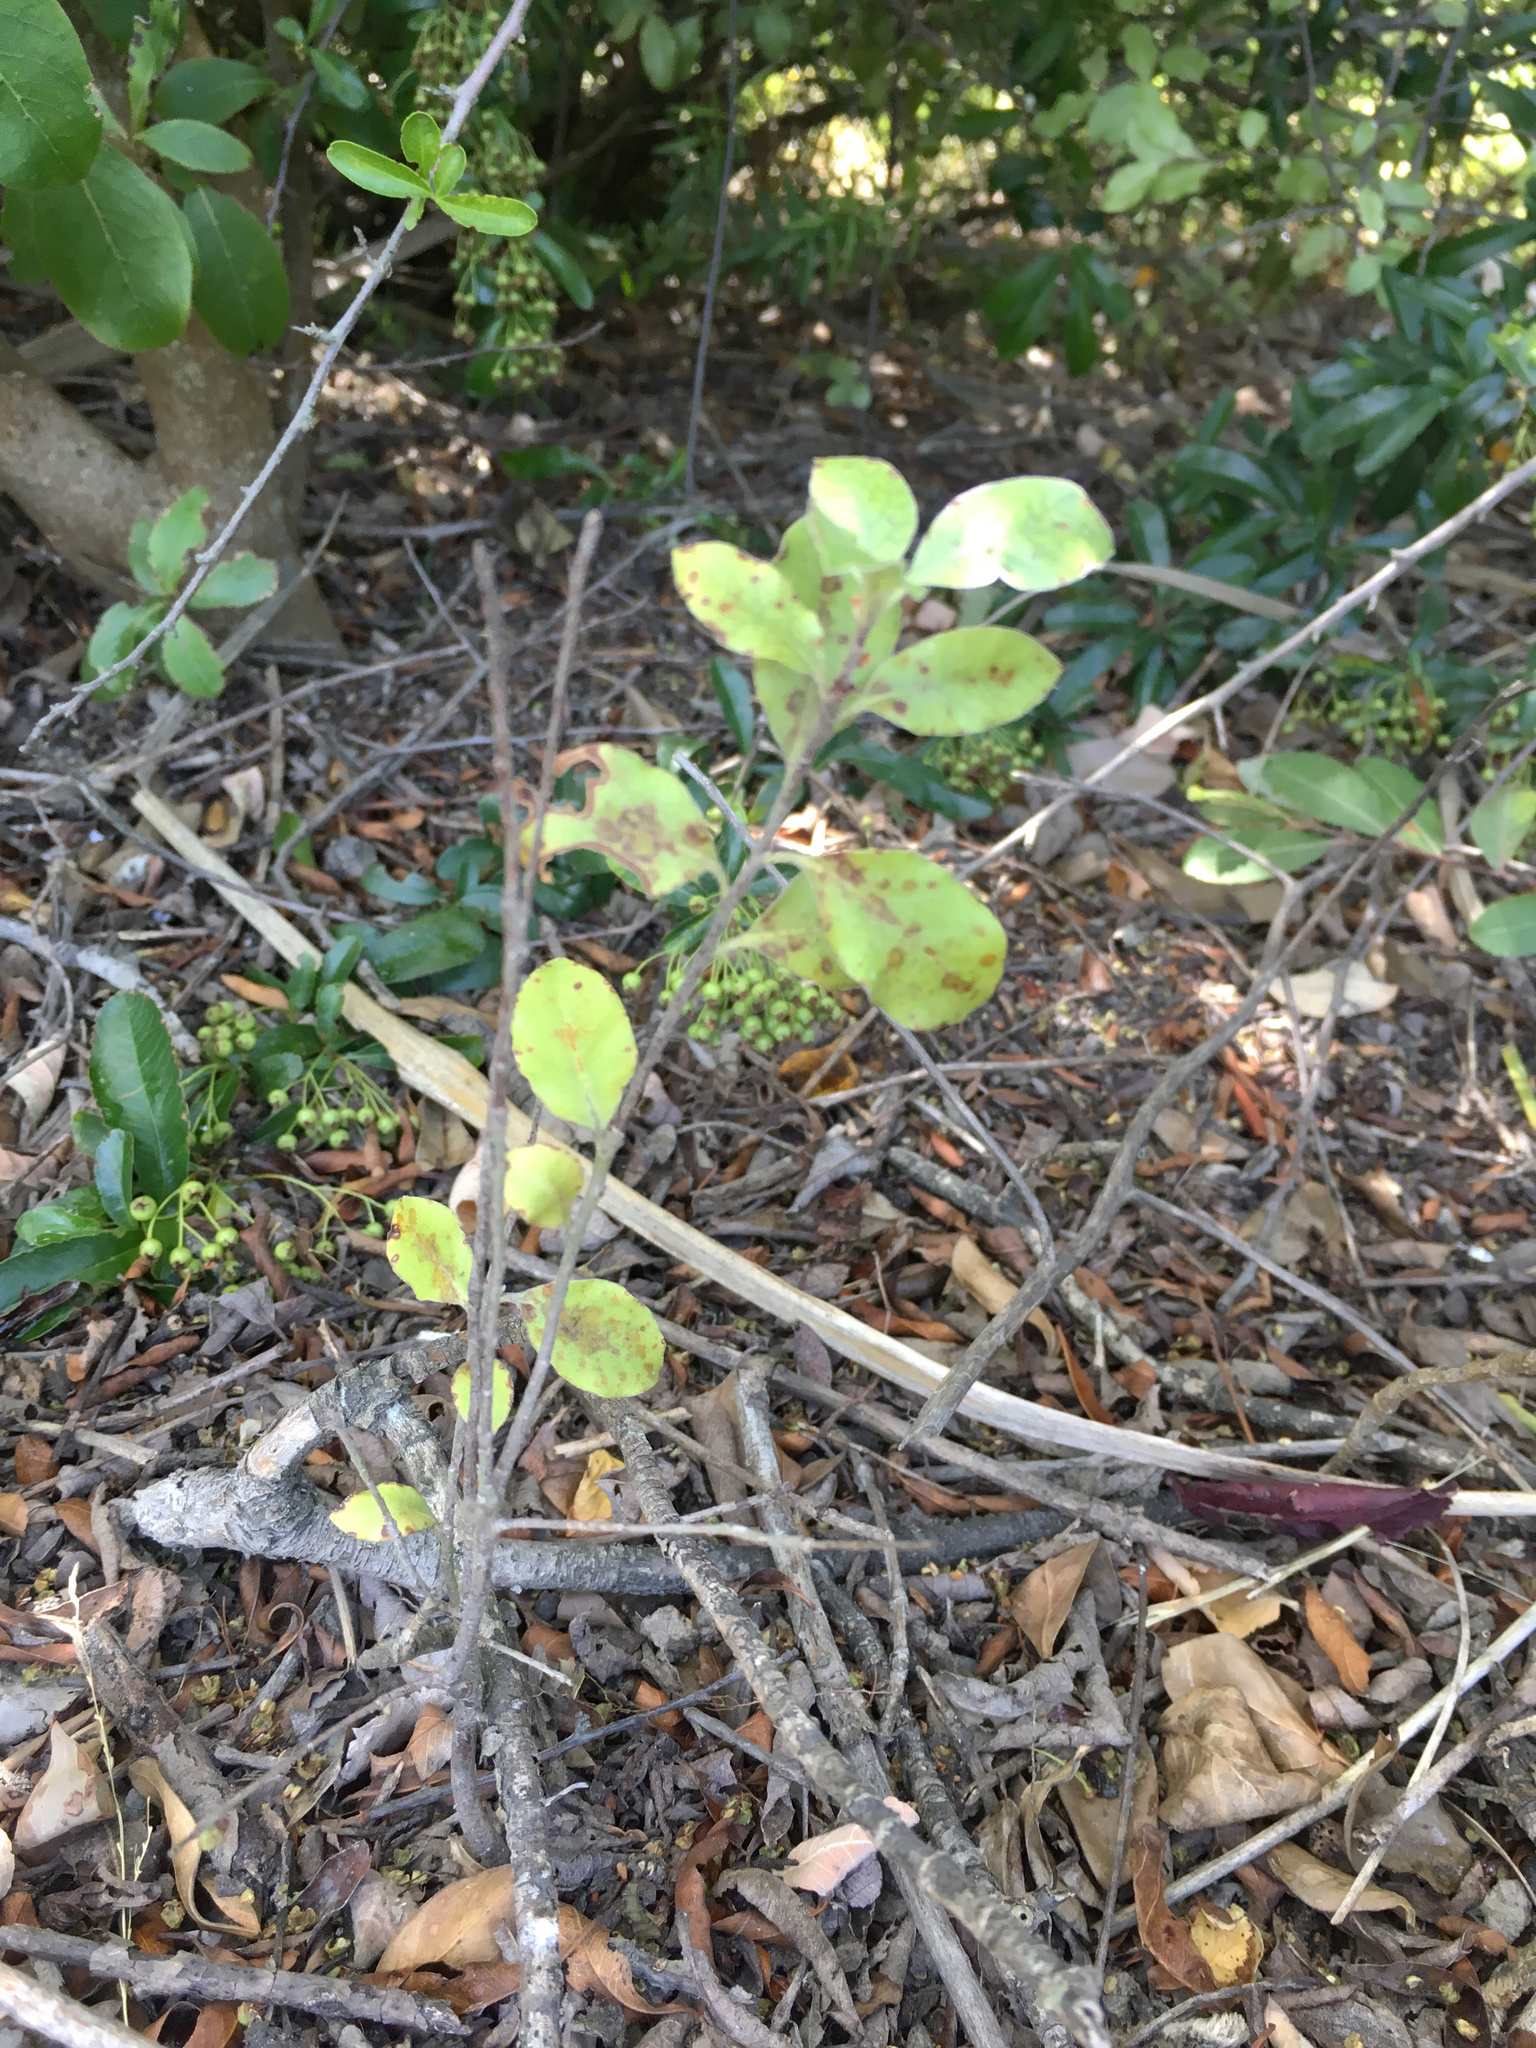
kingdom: Plantae
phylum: Tracheophyta
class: Magnoliopsida
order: Apiales
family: Pittosporaceae
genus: Pittosporum
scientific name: Pittosporum tenuifolium
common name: Kohuhu
